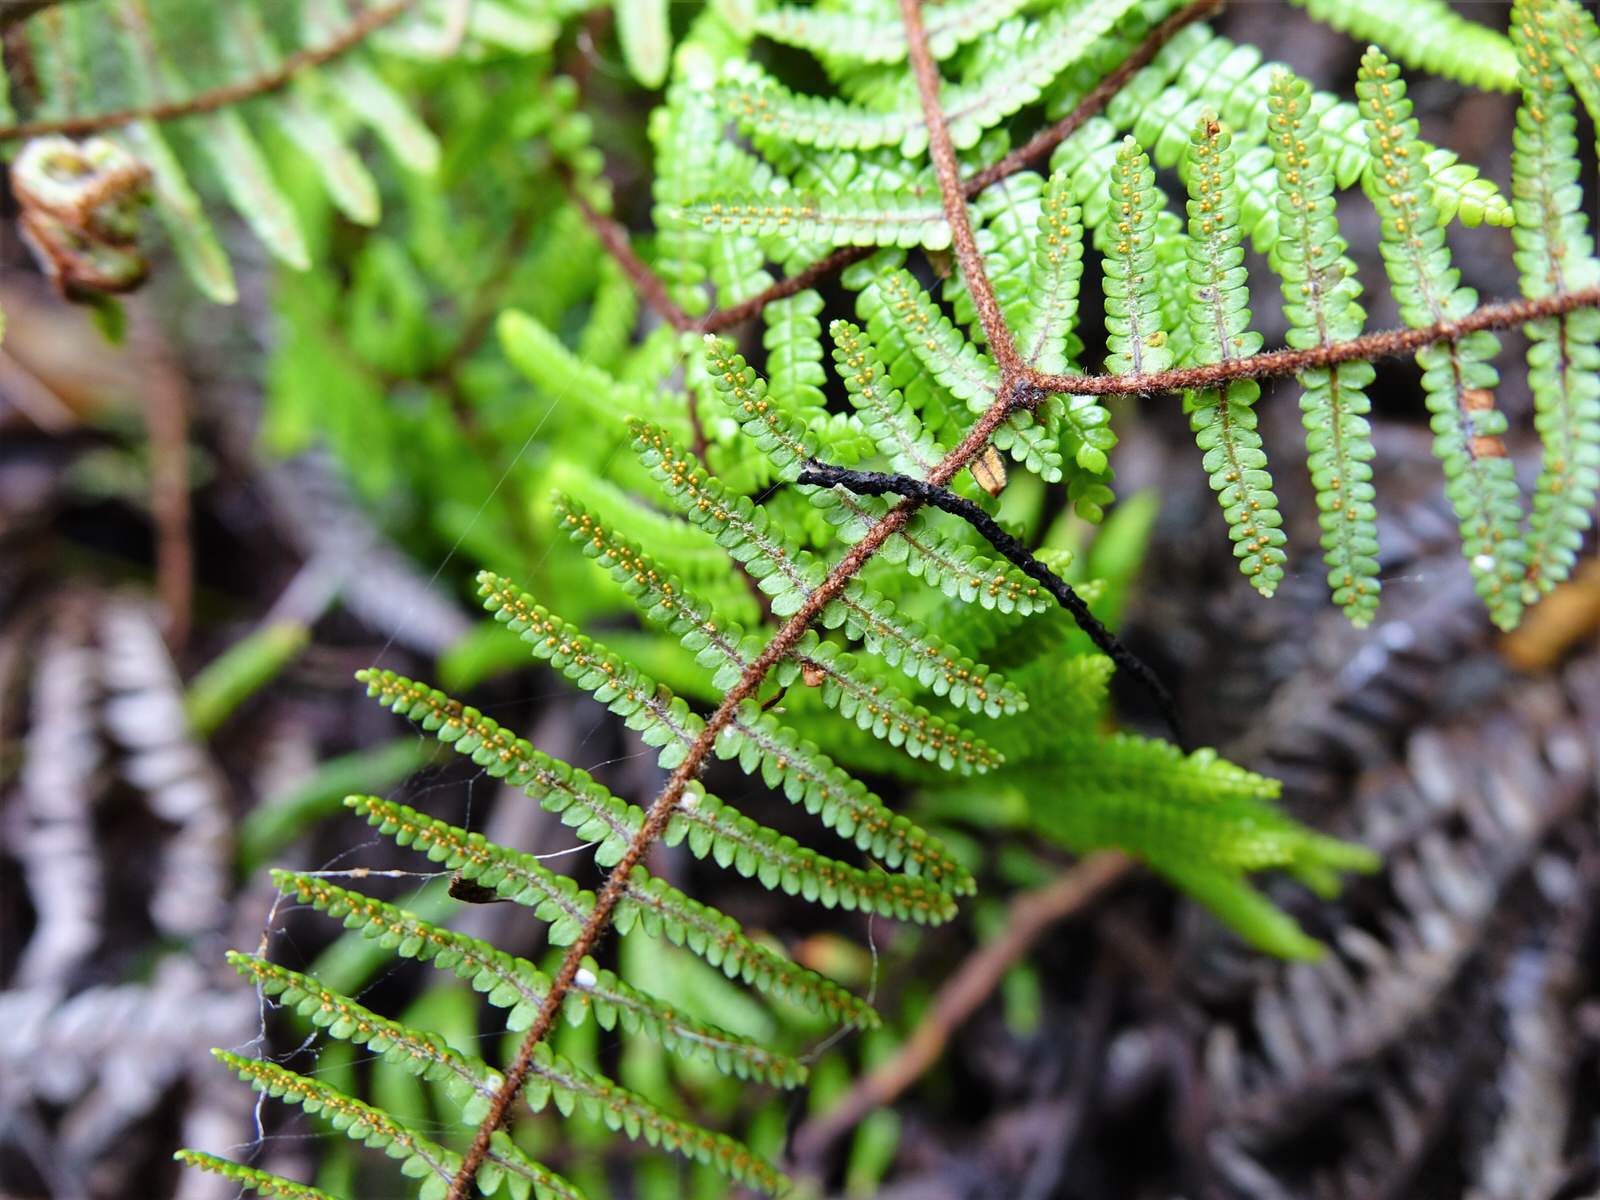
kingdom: Plantae
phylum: Tracheophyta
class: Polypodiopsida
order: Gleicheniales
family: Gleicheniaceae
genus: Gleichenia
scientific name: Gleichenia microphylla
